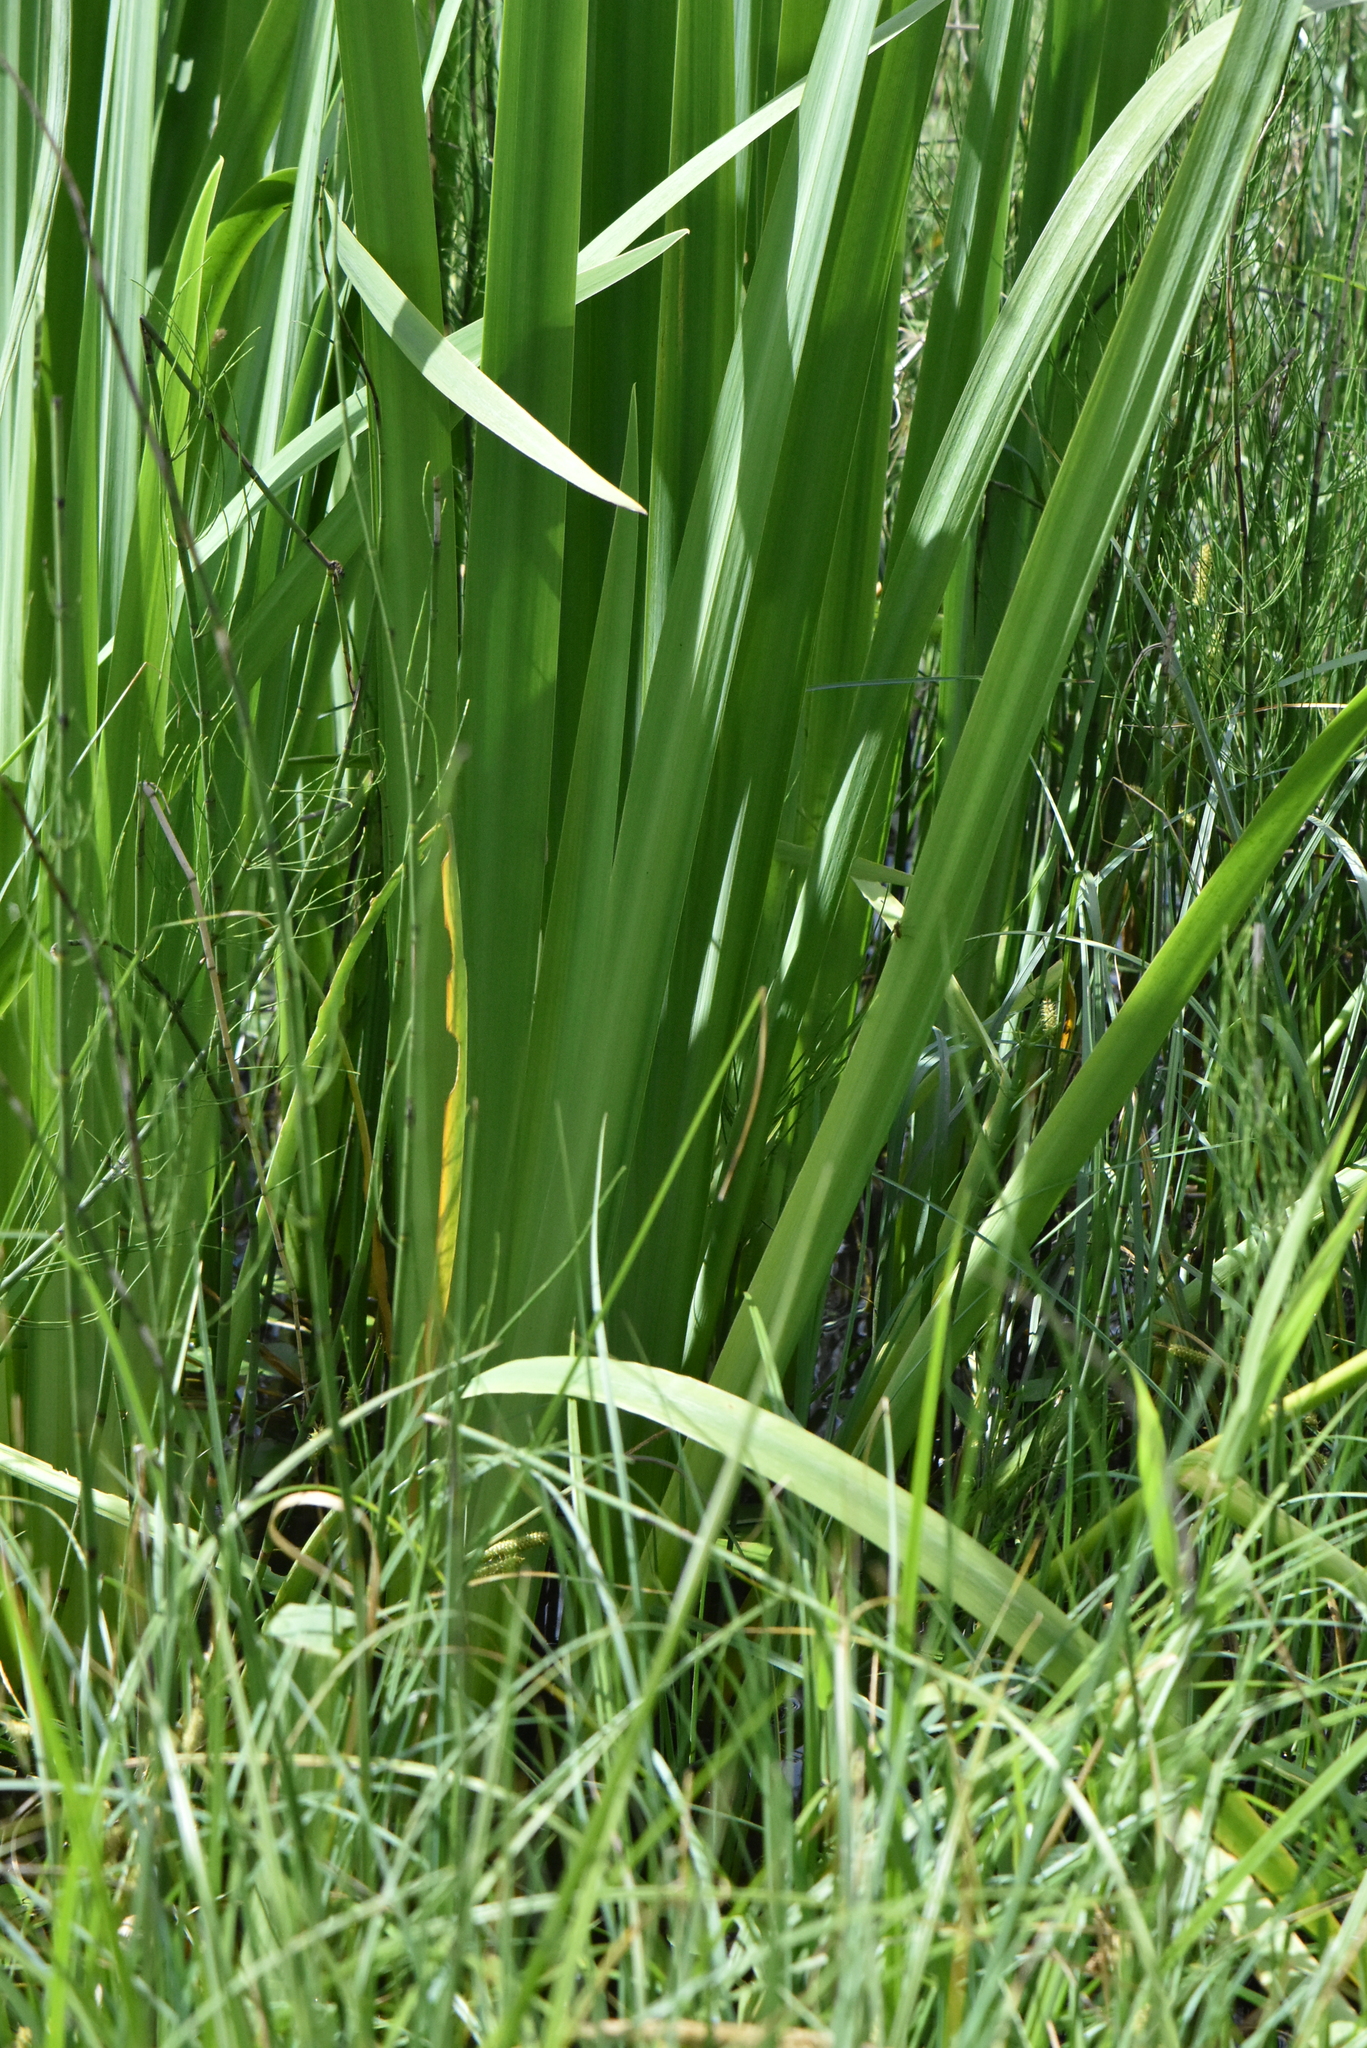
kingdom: Plantae
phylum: Tracheophyta
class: Liliopsida
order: Asparagales
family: Iridaceae
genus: Iris
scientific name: Iris pseudacorus
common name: Yellow flag
